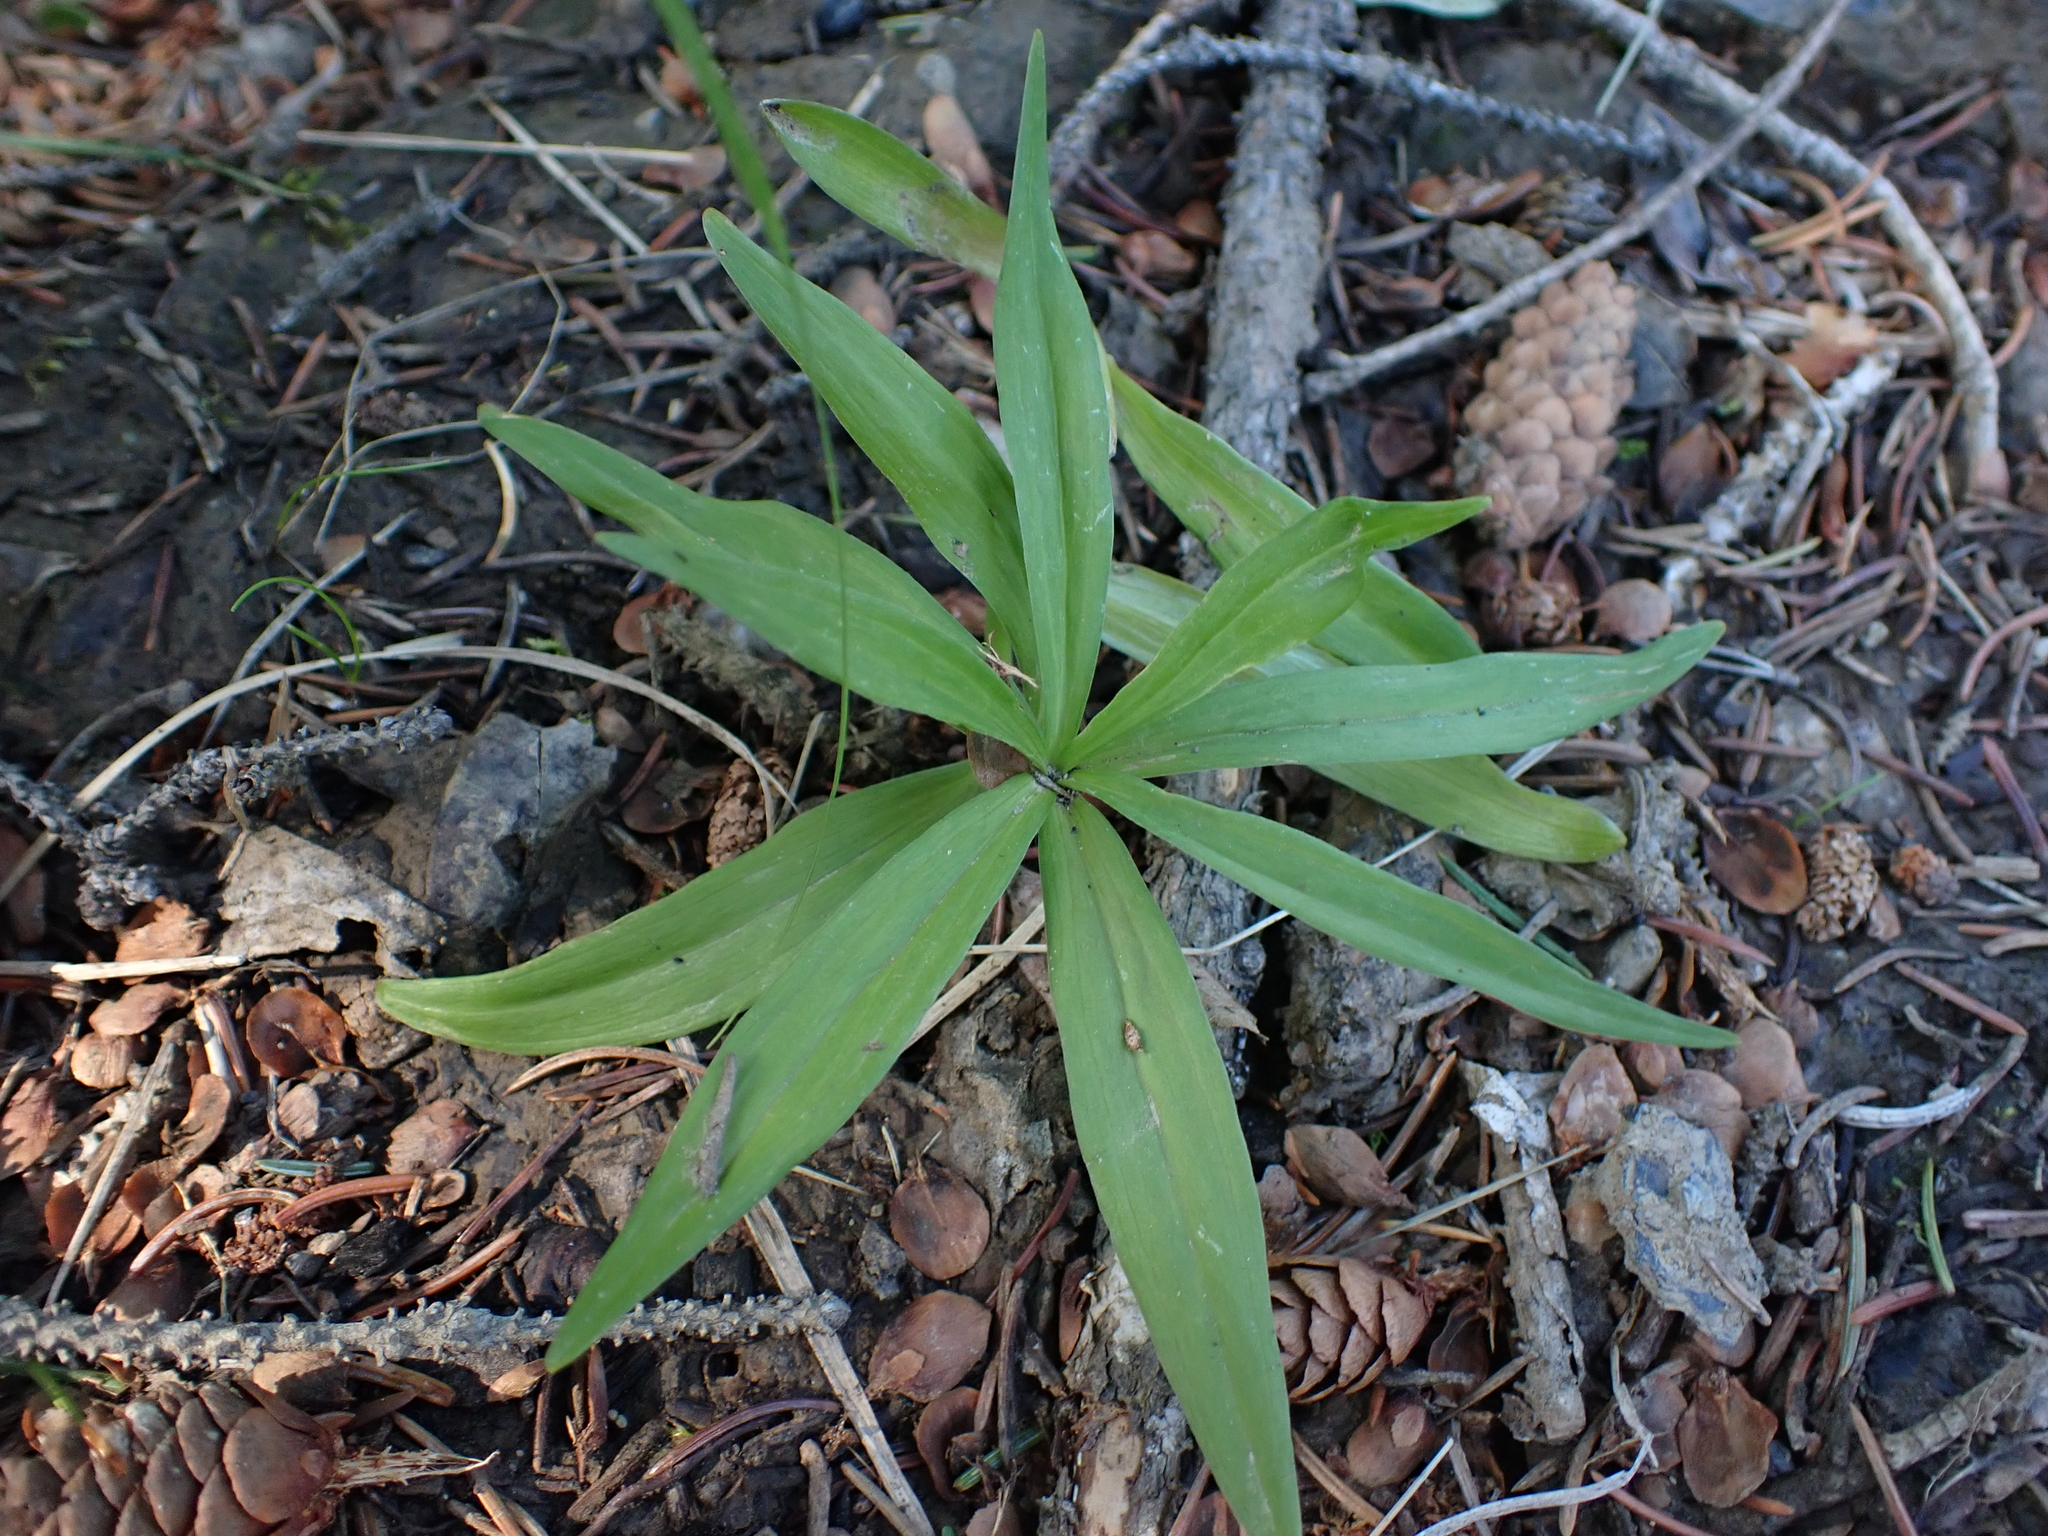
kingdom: Plantae
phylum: Tracheophyta
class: Liliopsida
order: Liliales
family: Liliaceae
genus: Lilium
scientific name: Lilium columbianum
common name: Columbia lily
